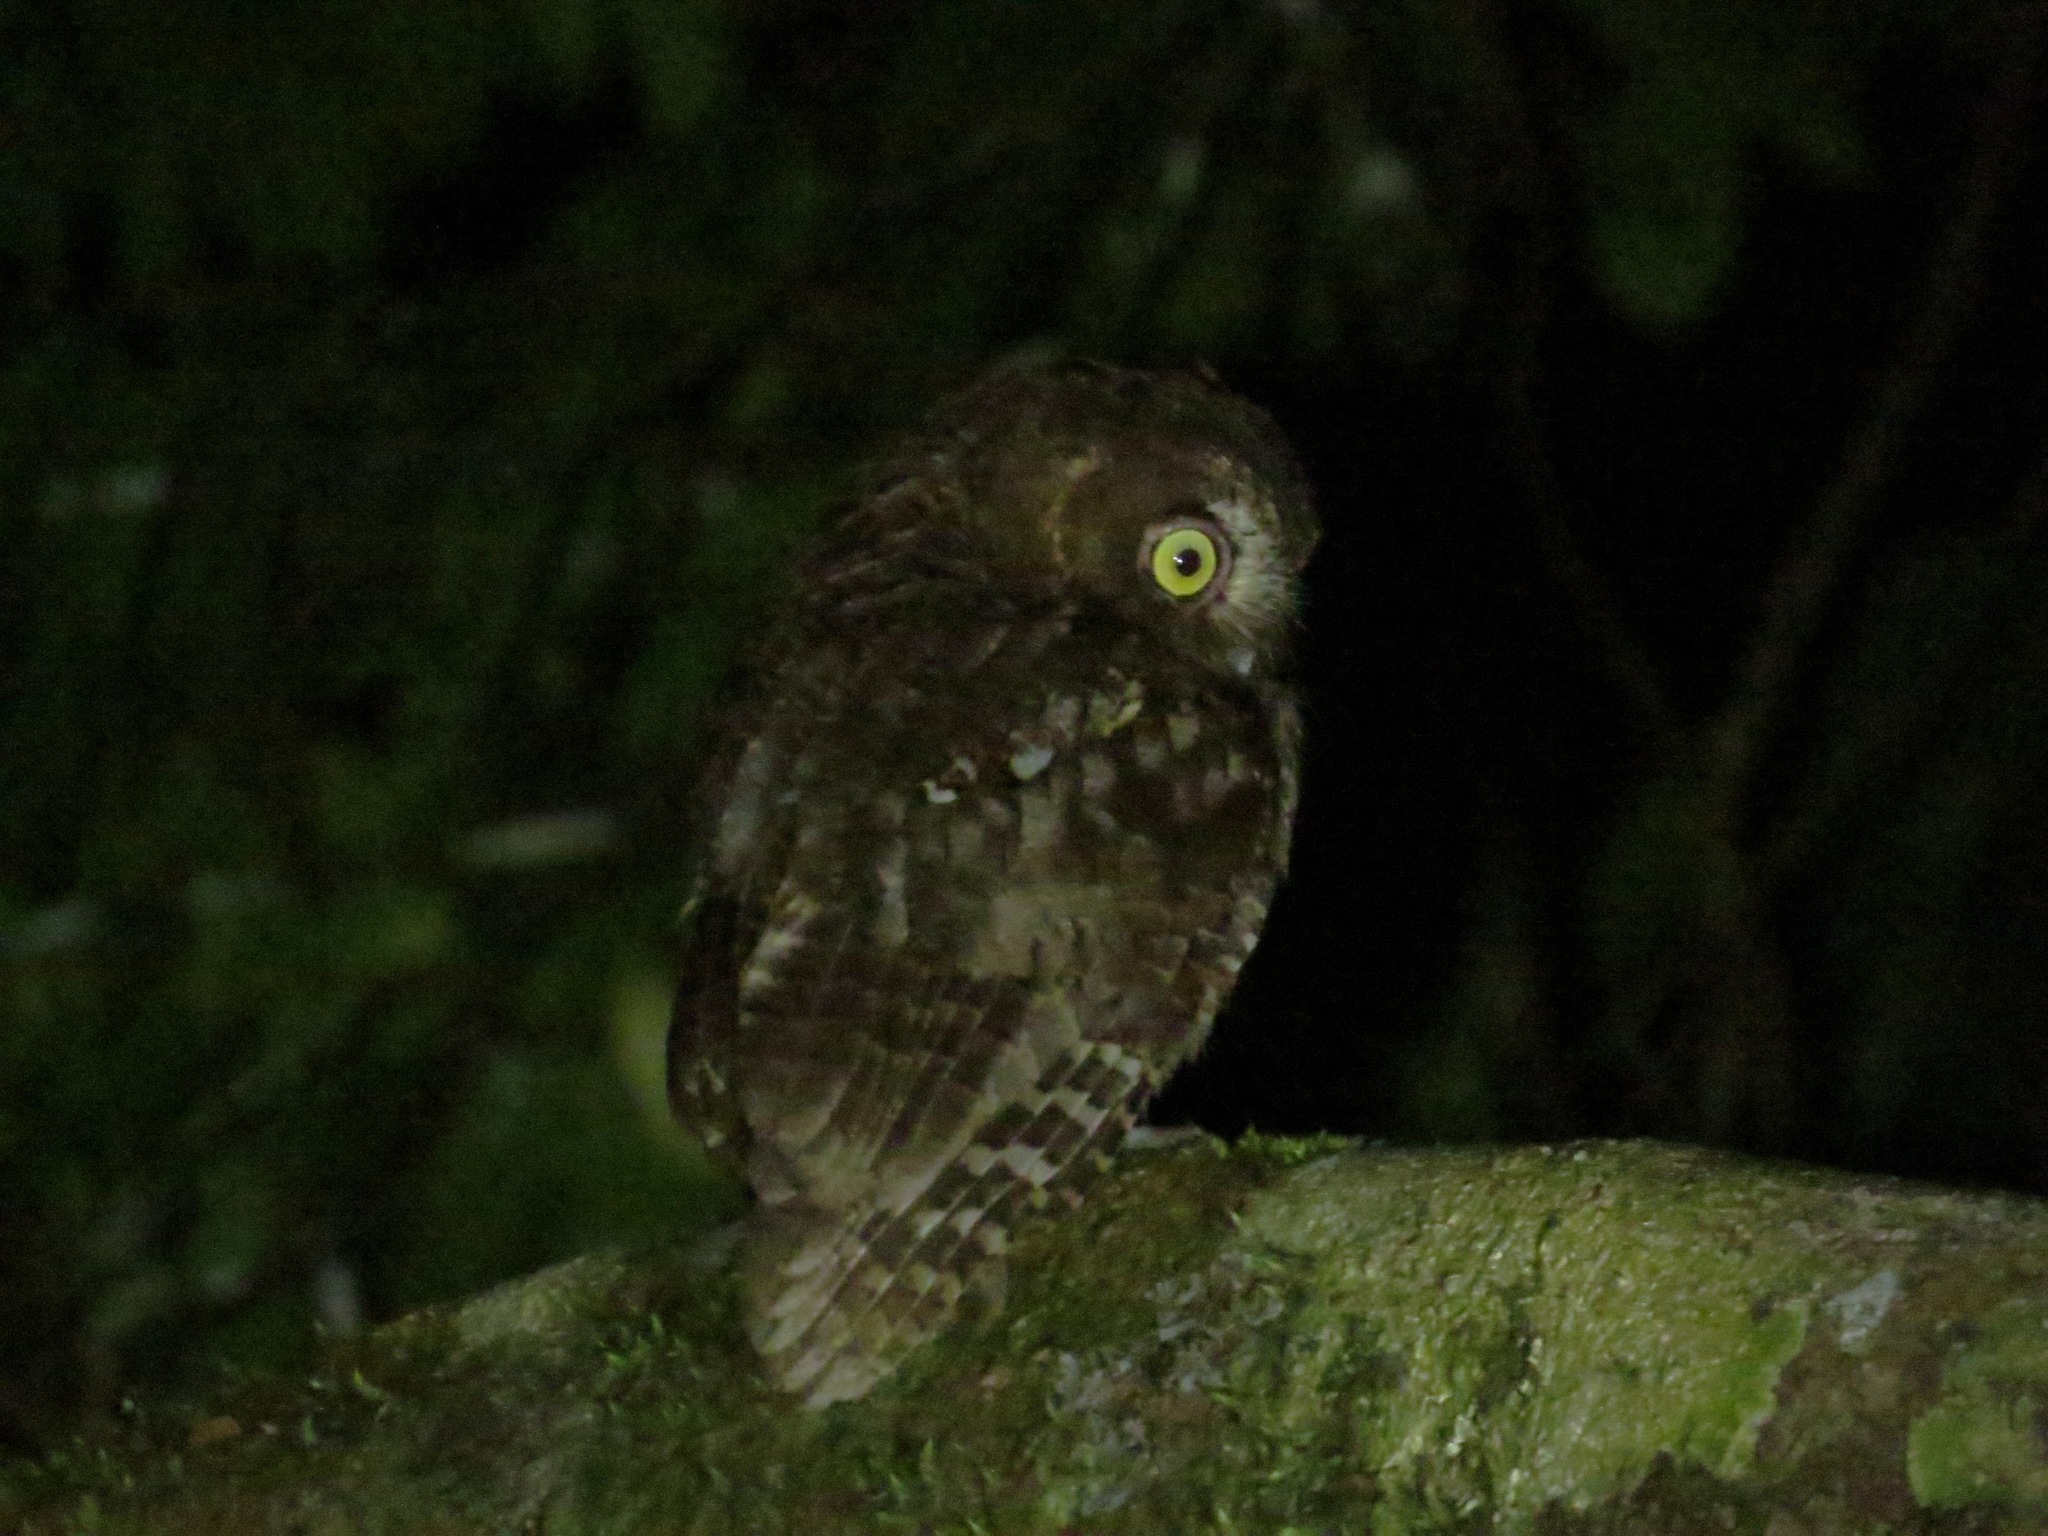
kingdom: Animalia
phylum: Chordata
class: Aves
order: Strigiformes
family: Strigidae
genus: Otus
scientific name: Otus rutilus
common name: Rainforest scops owl
